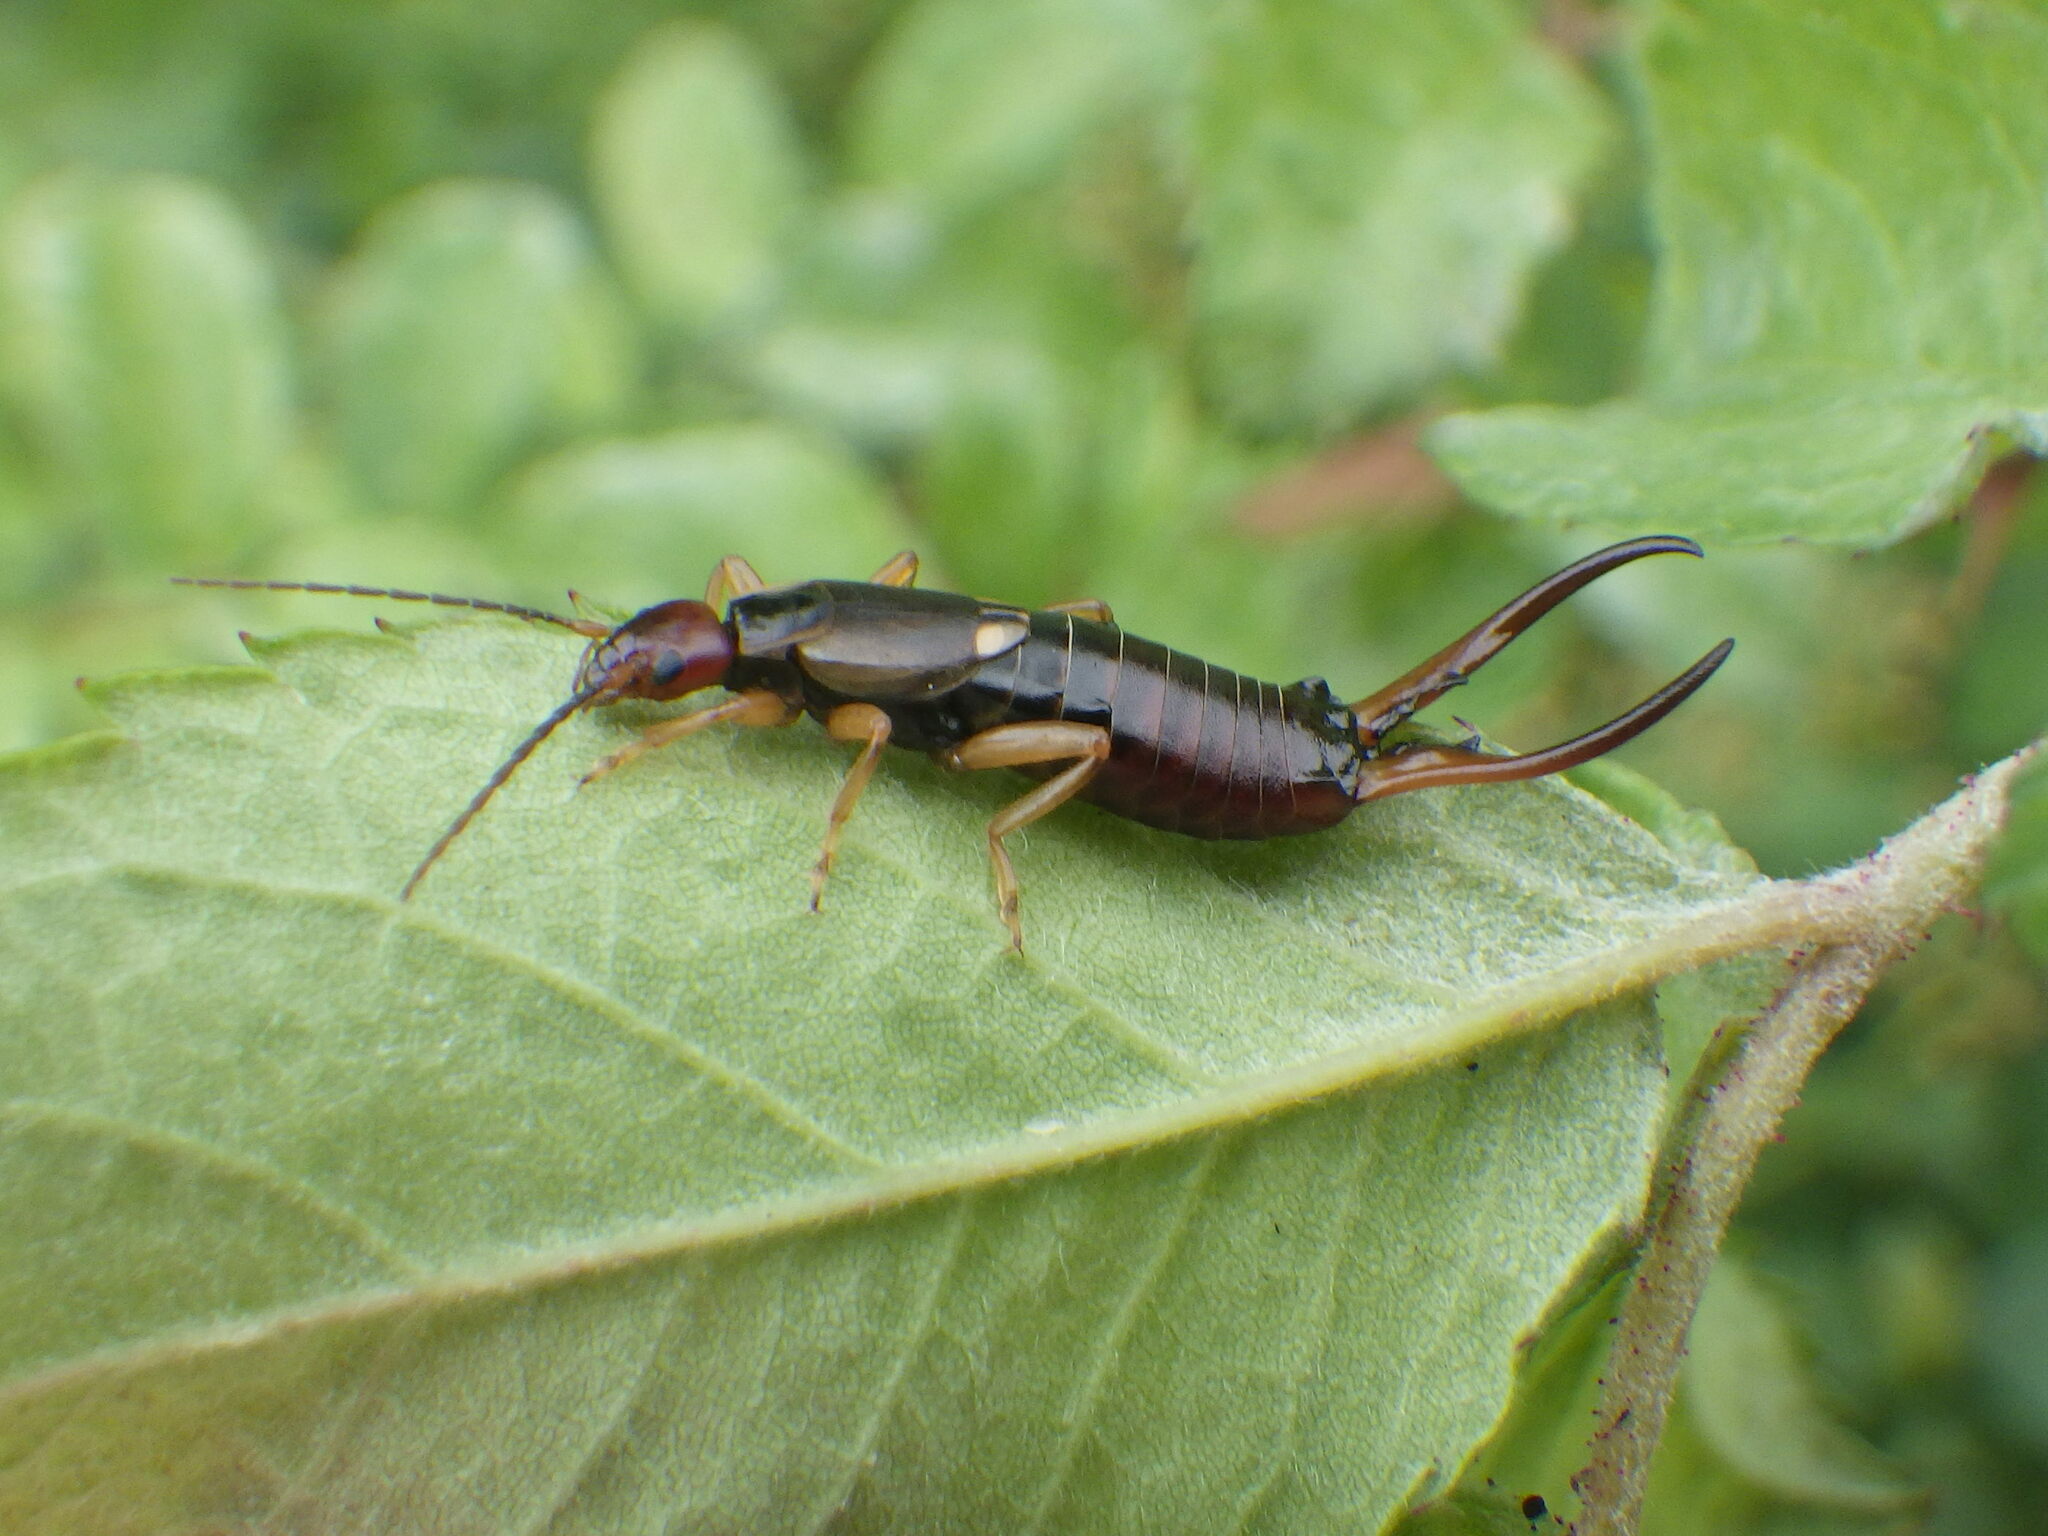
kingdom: Animalia
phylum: Arthropoda
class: Insecta
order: Dermaptera
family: Forficulidae
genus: Forficula
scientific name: Forficula
